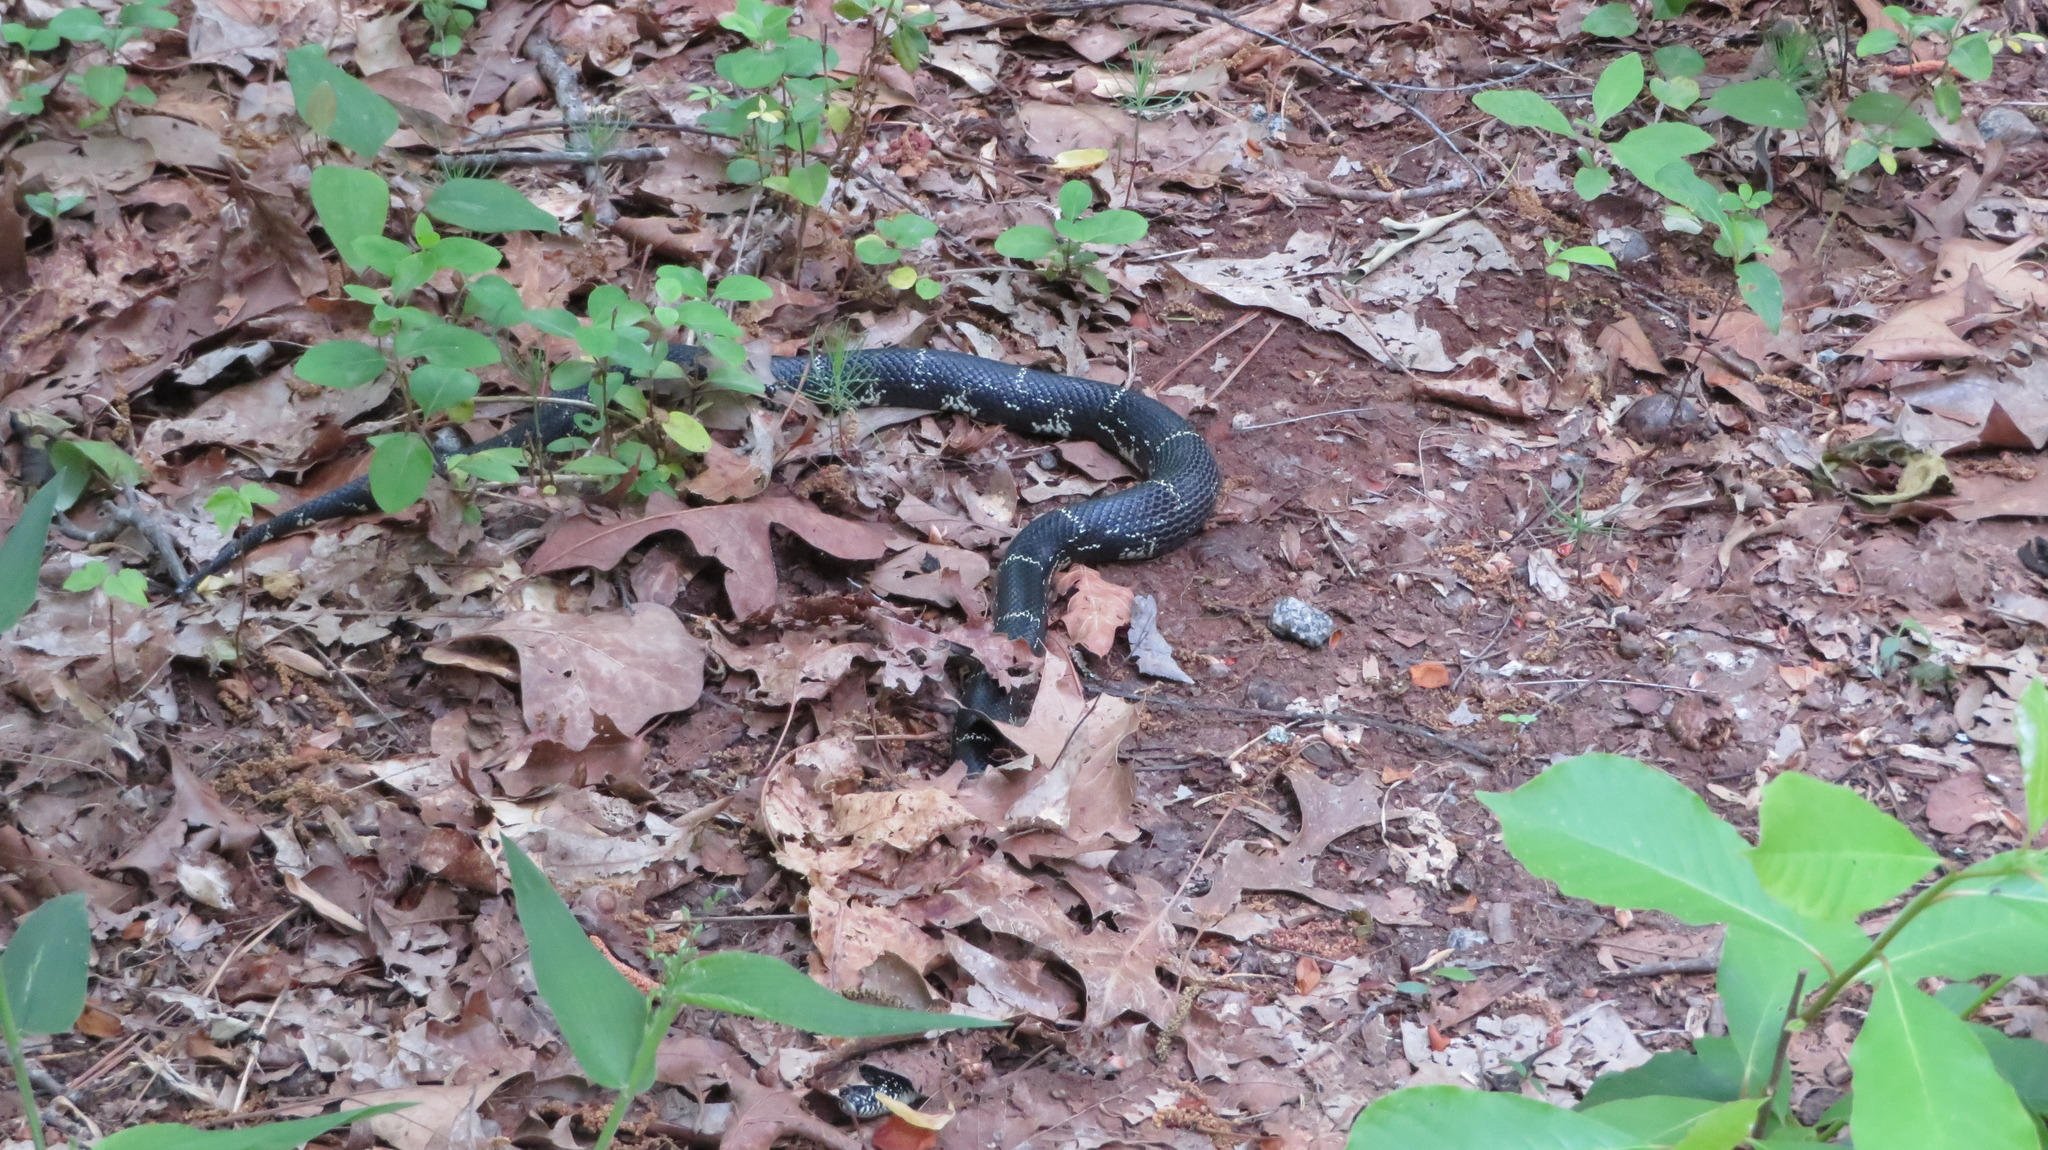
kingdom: Animalia
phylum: Chordata
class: Squamata
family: Colubridae
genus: Lampropeltis
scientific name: Lampropeltis getula
